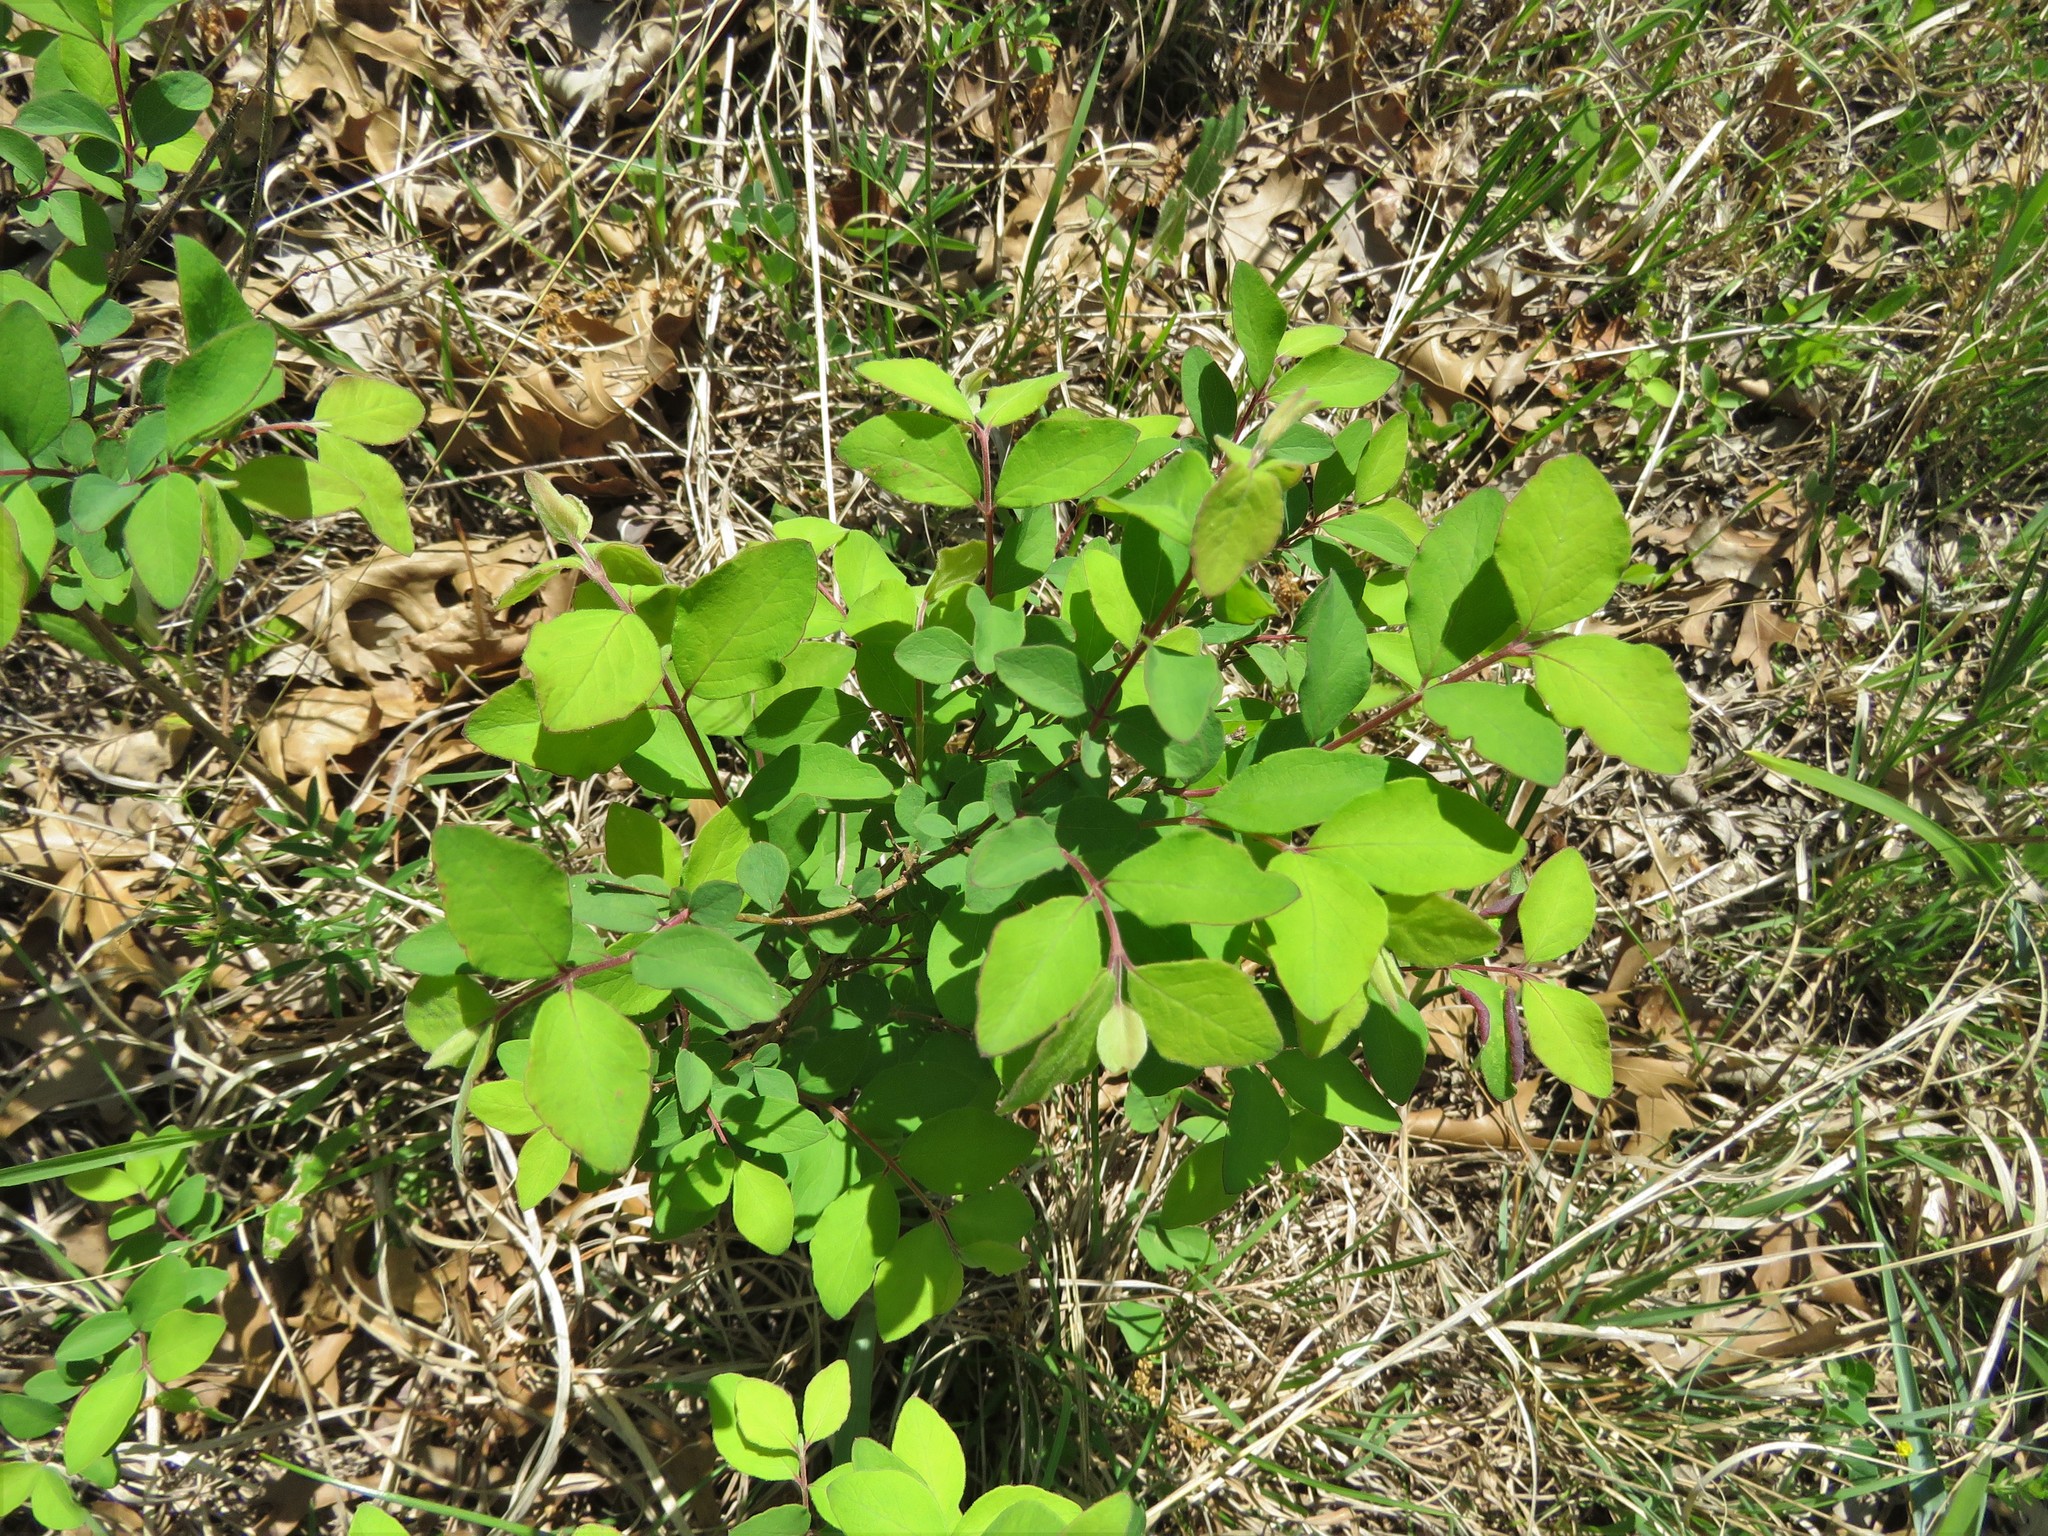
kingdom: Plantae
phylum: Tracheophyta
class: Magnoliopsida
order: Dipsacales
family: Caprifoliaceae
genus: Symphoricarpos
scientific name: Symphoricarpos orbiculatus
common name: Coralberry
